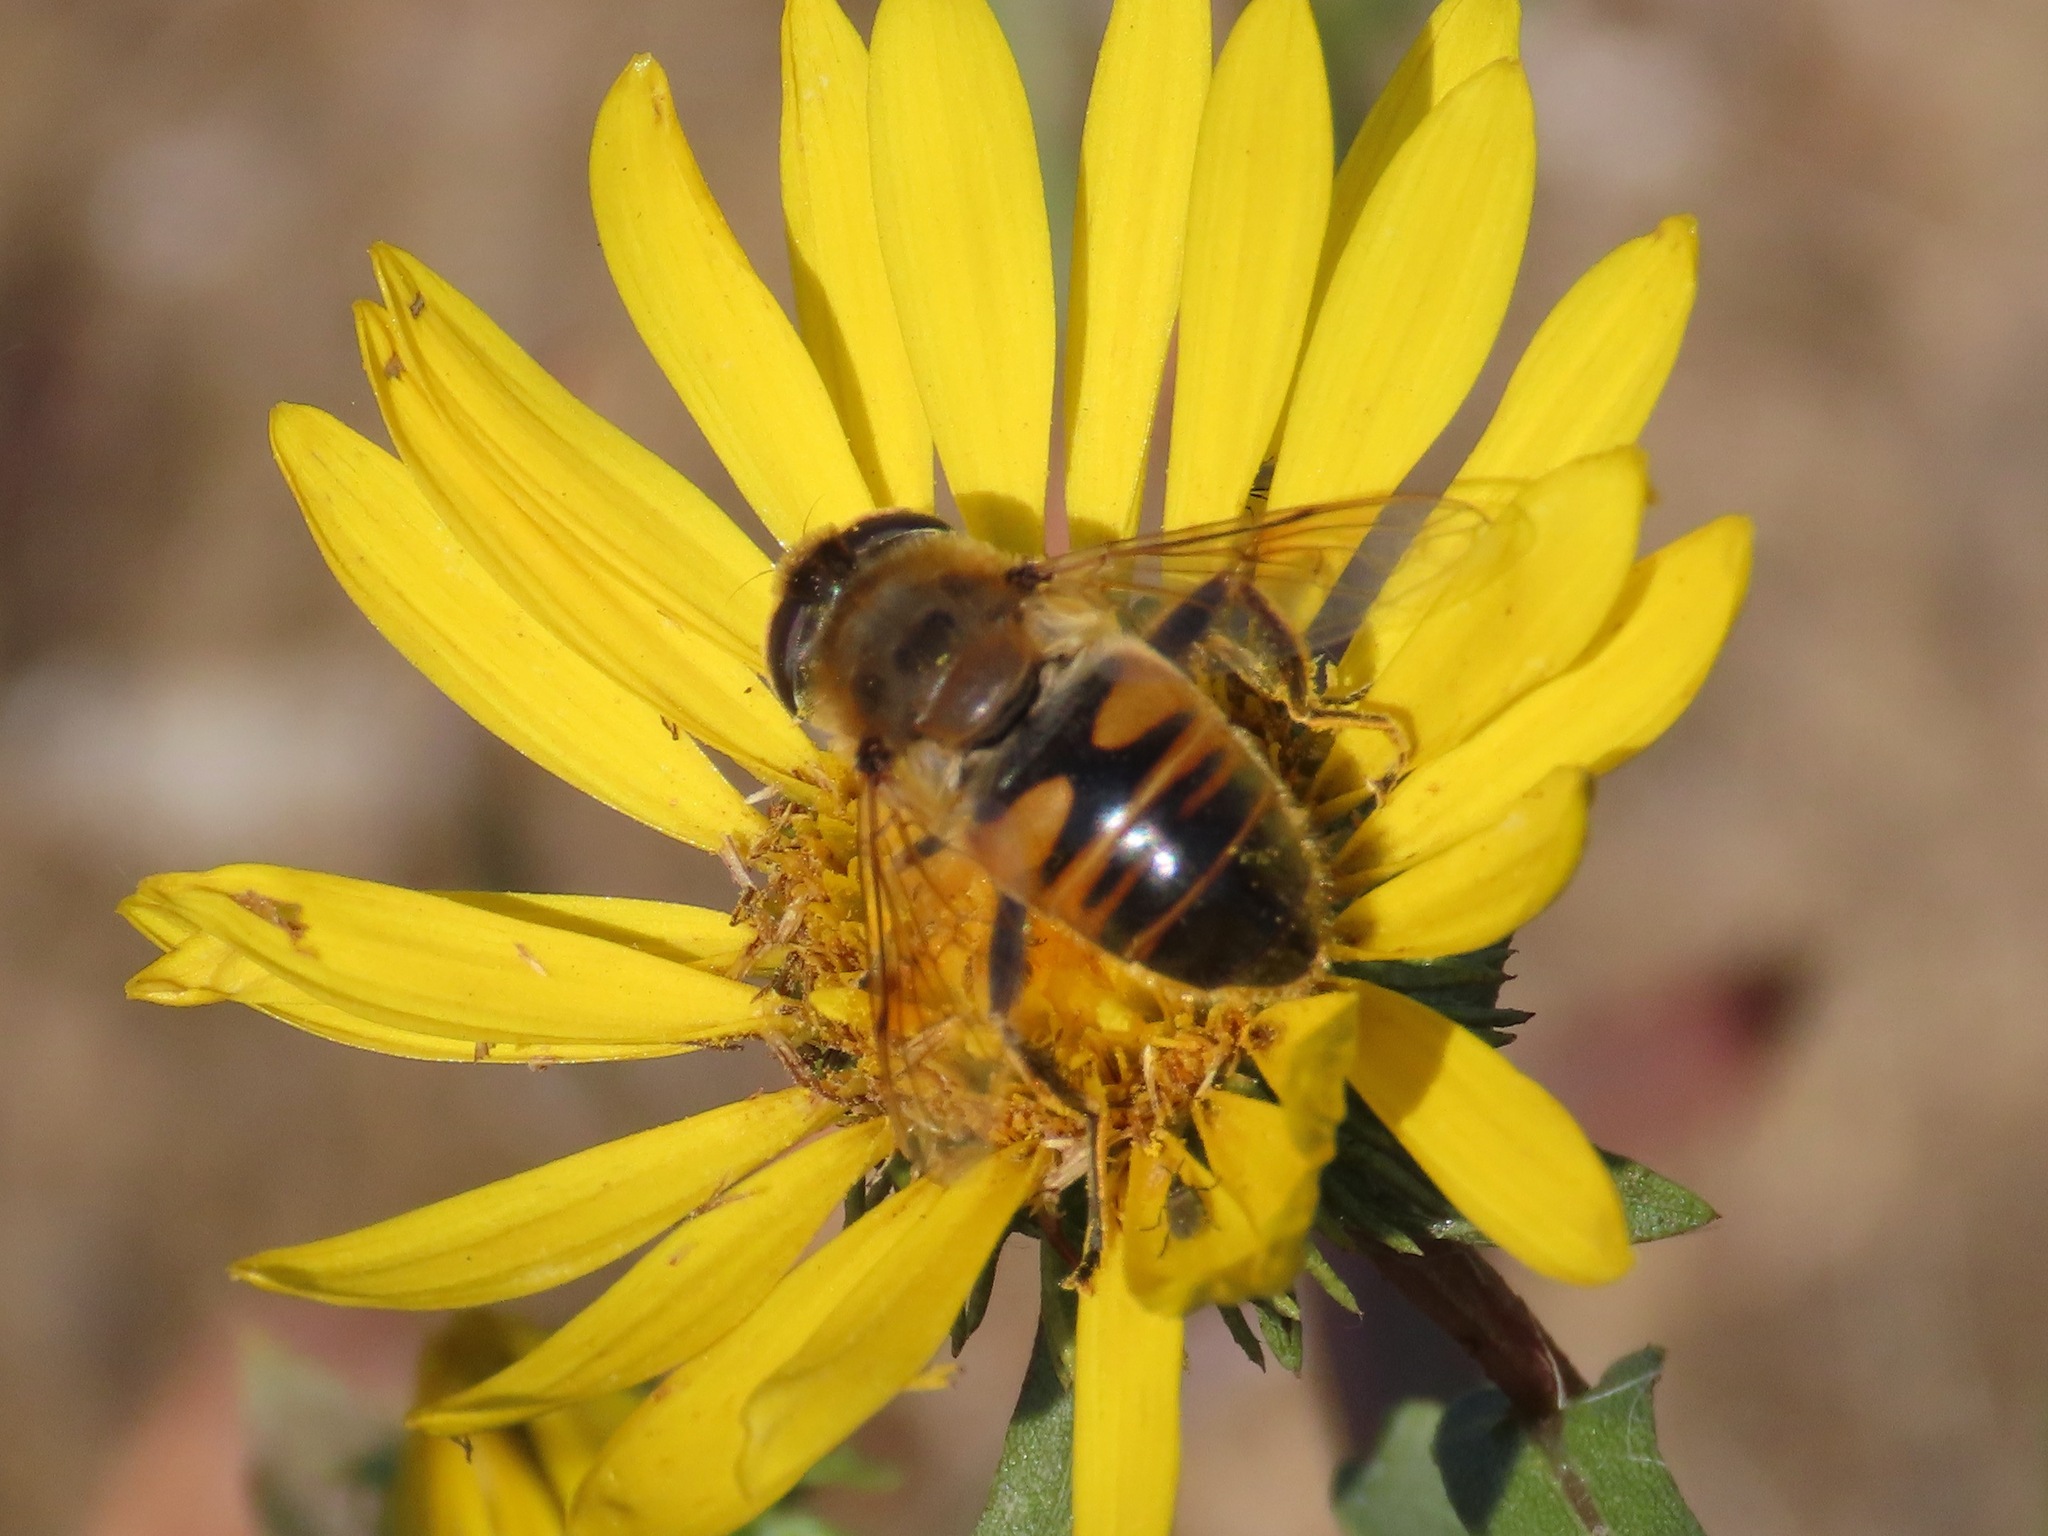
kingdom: Animalia
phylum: Arthropoda
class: Insecta
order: Diptera
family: Syrphidae
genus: Eristalis
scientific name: Eristalis tenax
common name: Drone fly
